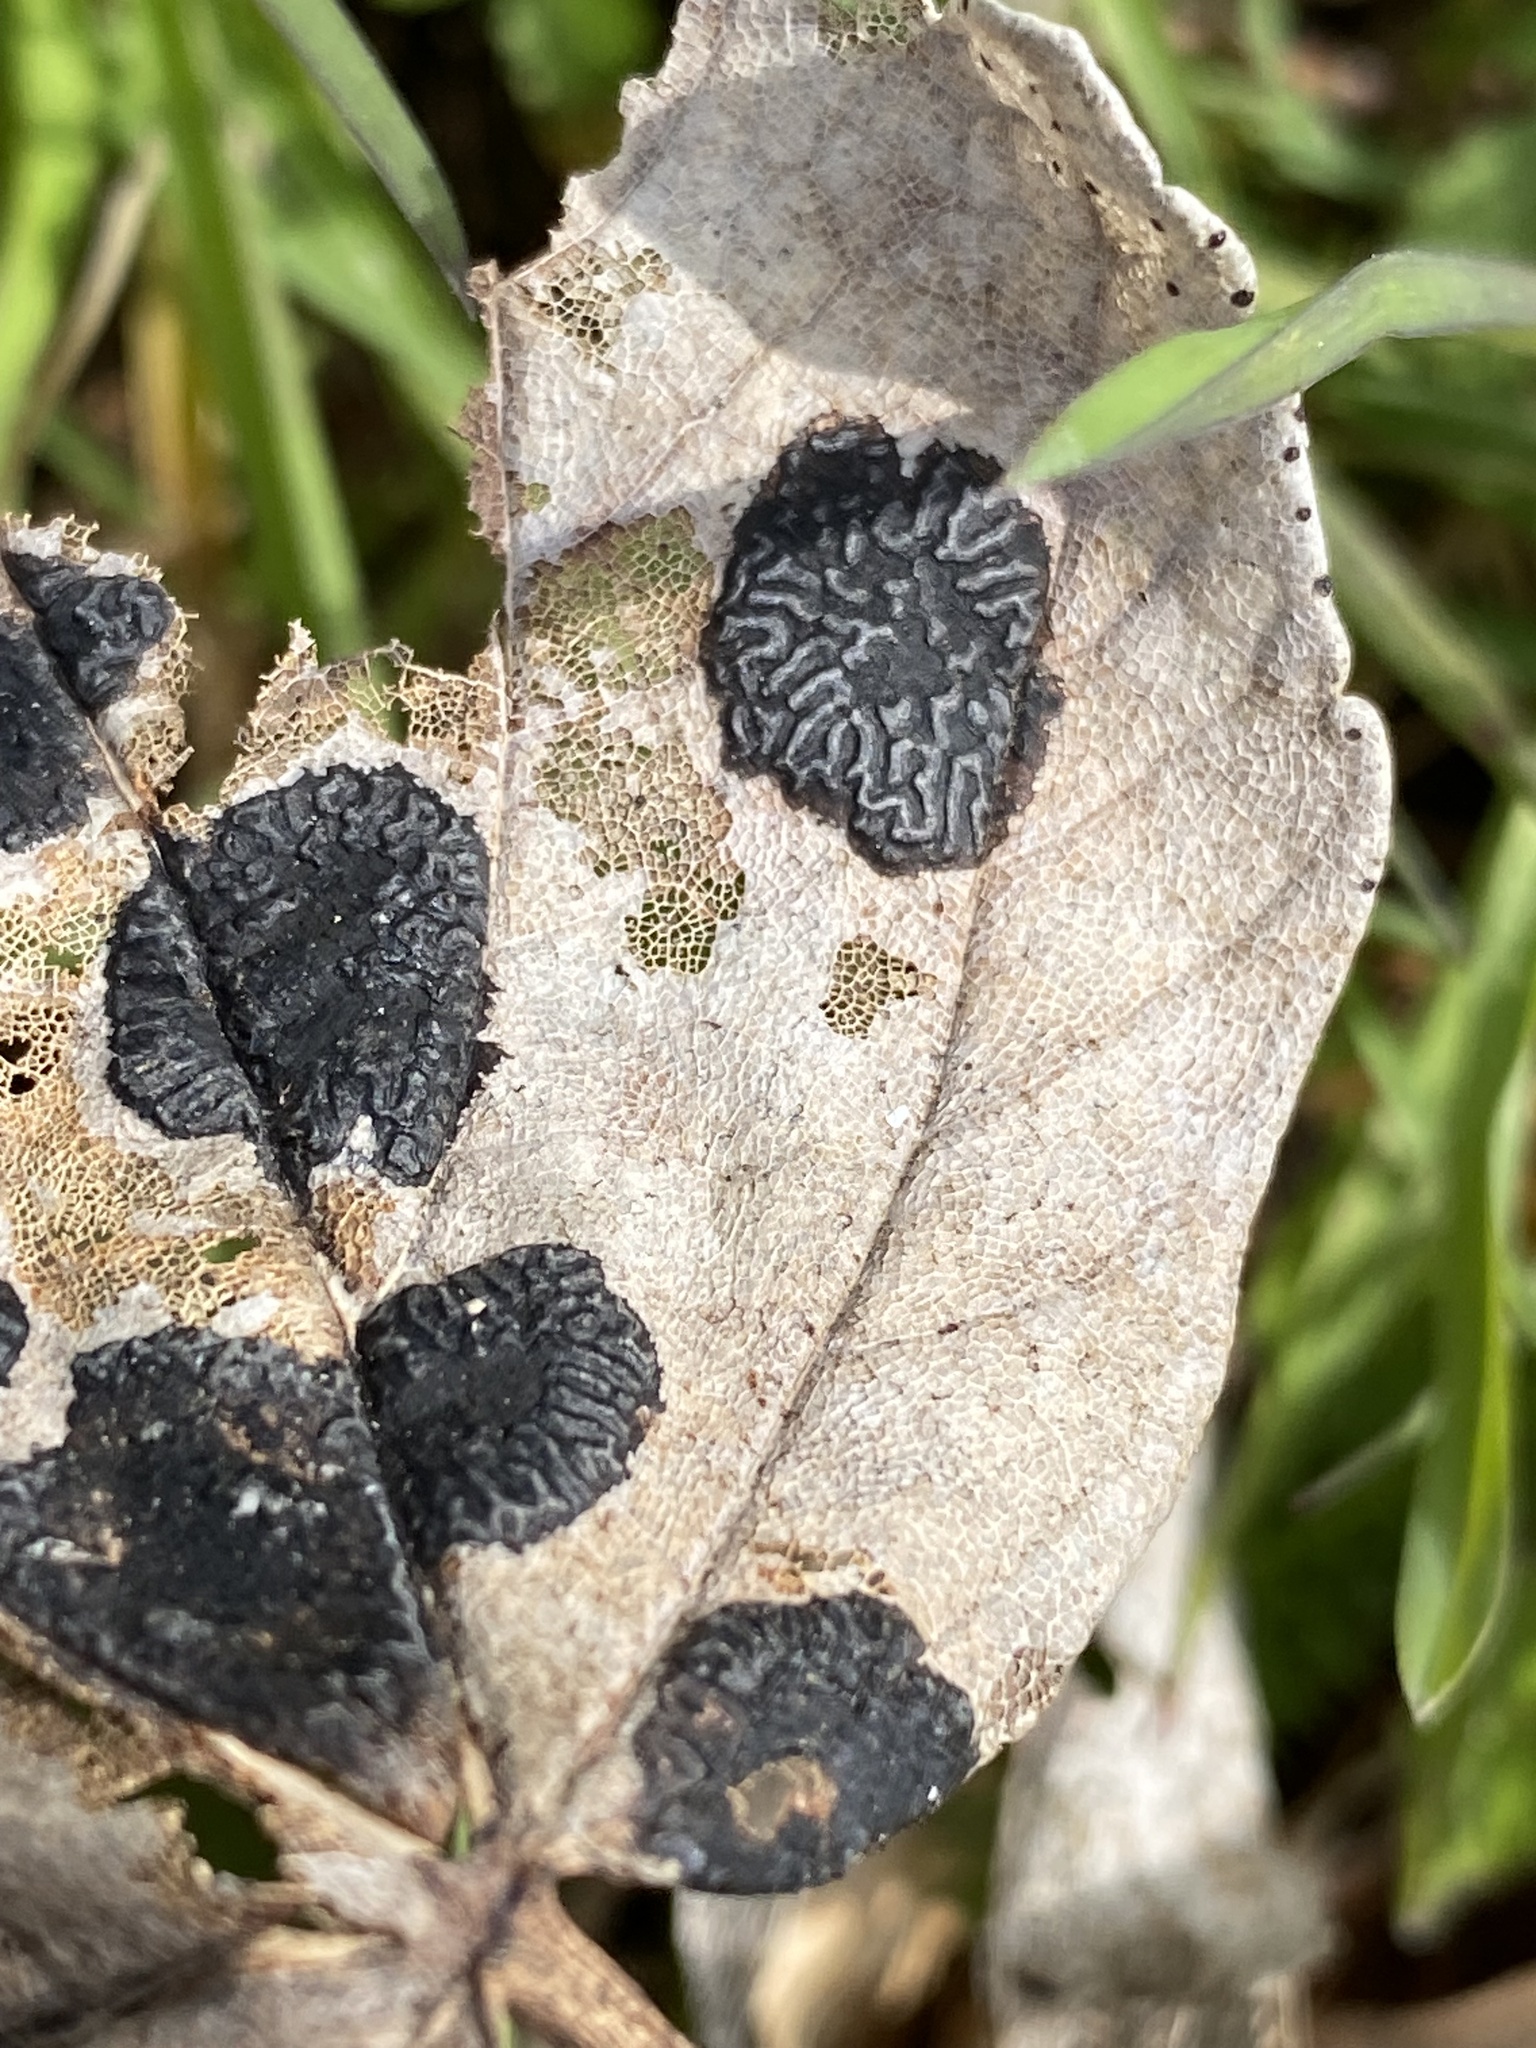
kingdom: Fungi
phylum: Ascomycota
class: Leotiomycetes
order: Rhytismatales
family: Rhytismataceae
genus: Rhytisma
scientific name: Rhytisma acerinum
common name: European tar spot
